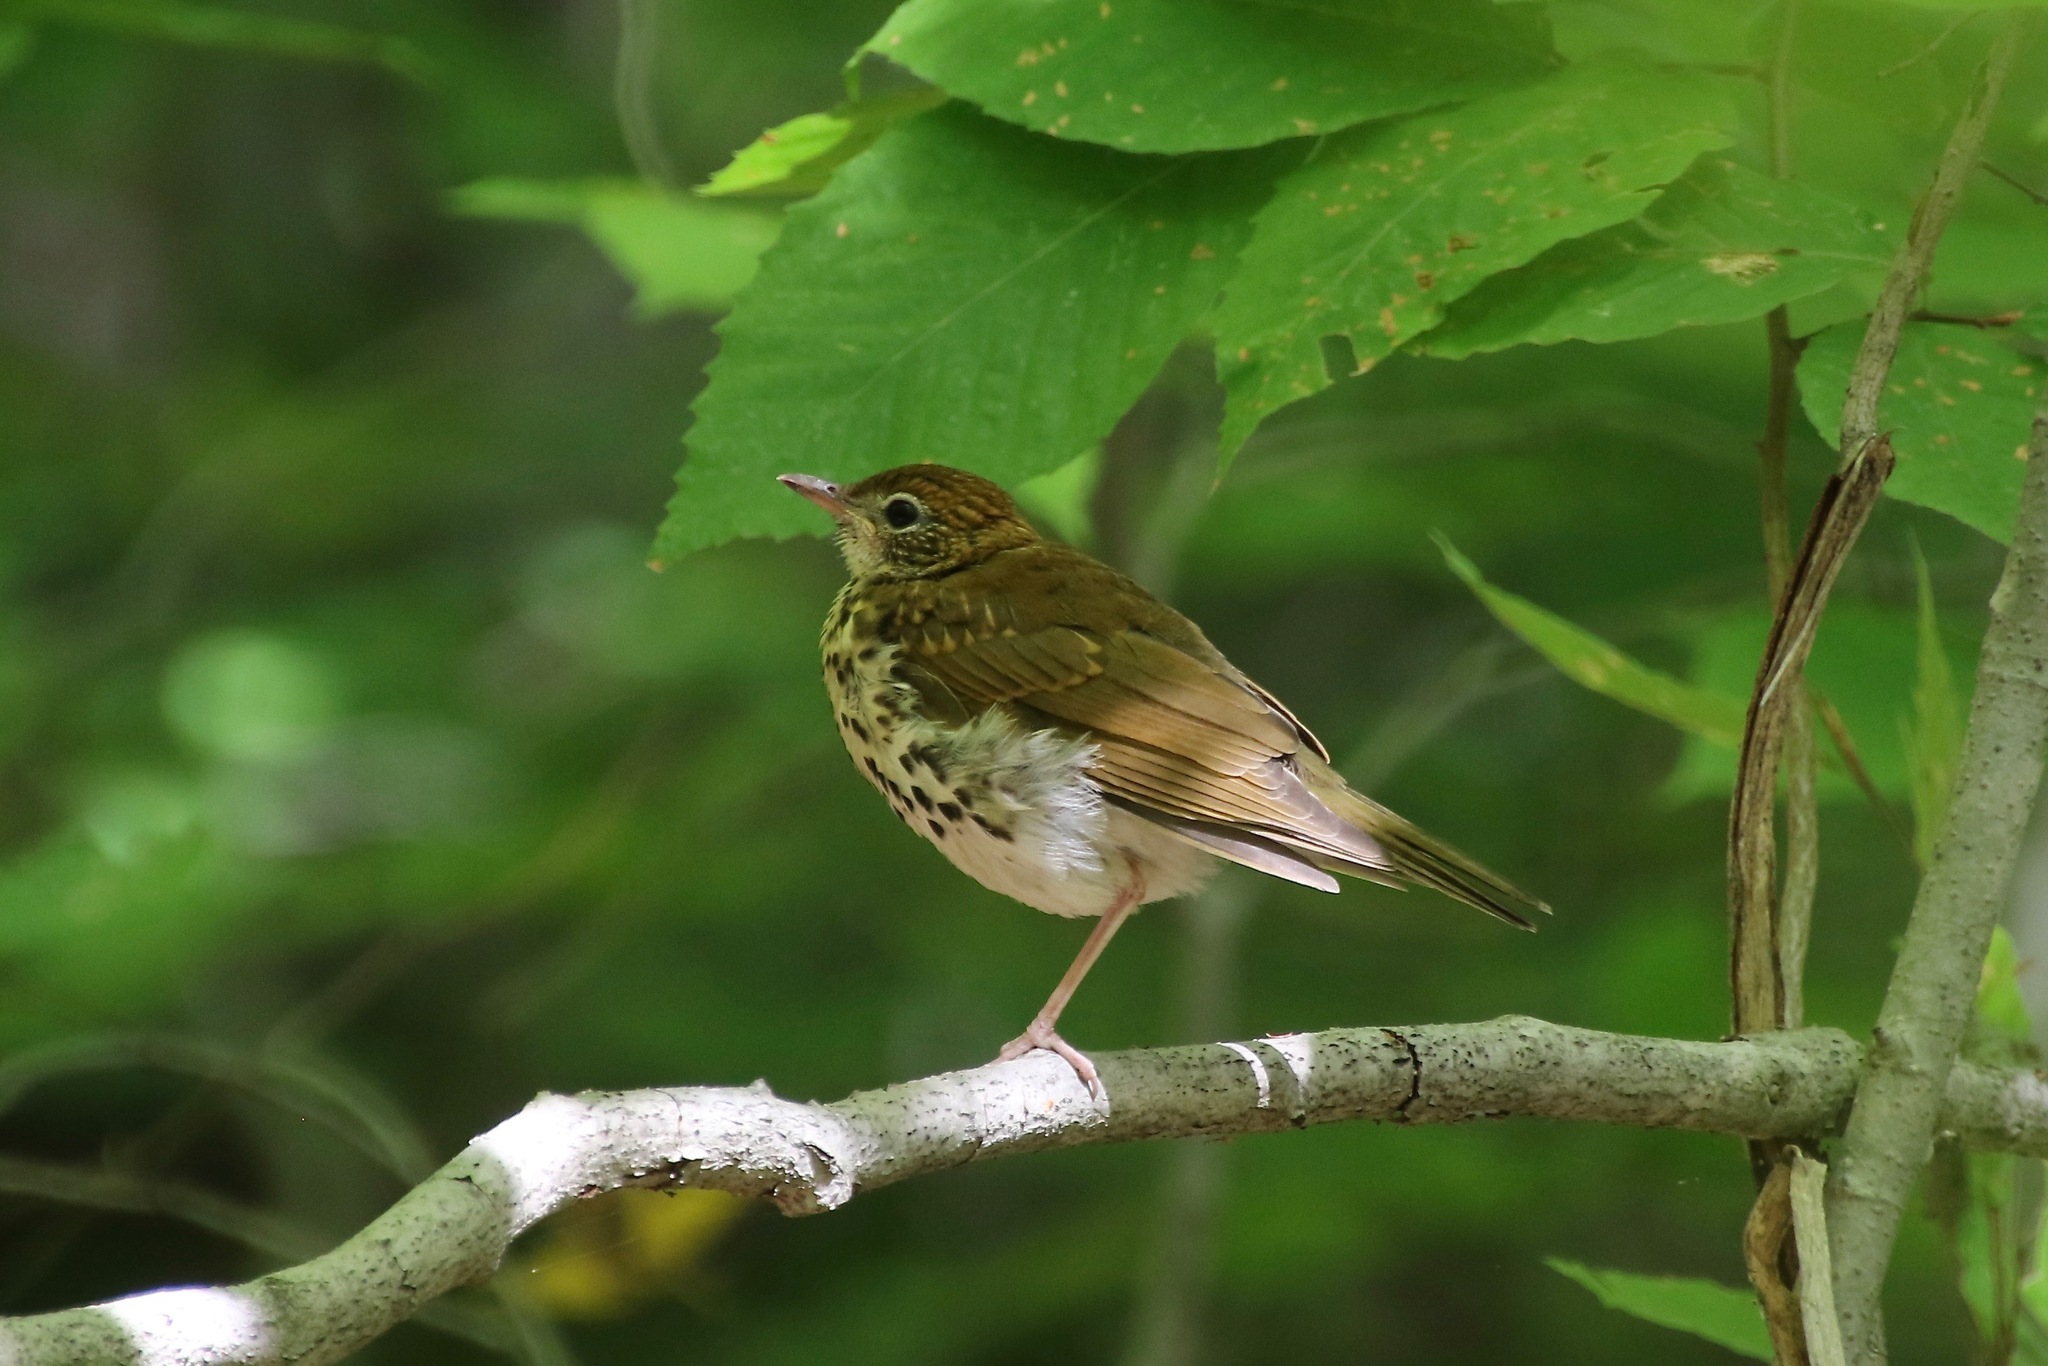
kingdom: Animalia
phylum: Chordata
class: Aves
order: Passeriformes
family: Turdidae
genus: Hylocichla
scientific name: Hylocichla mustelina
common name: Wood thrush
